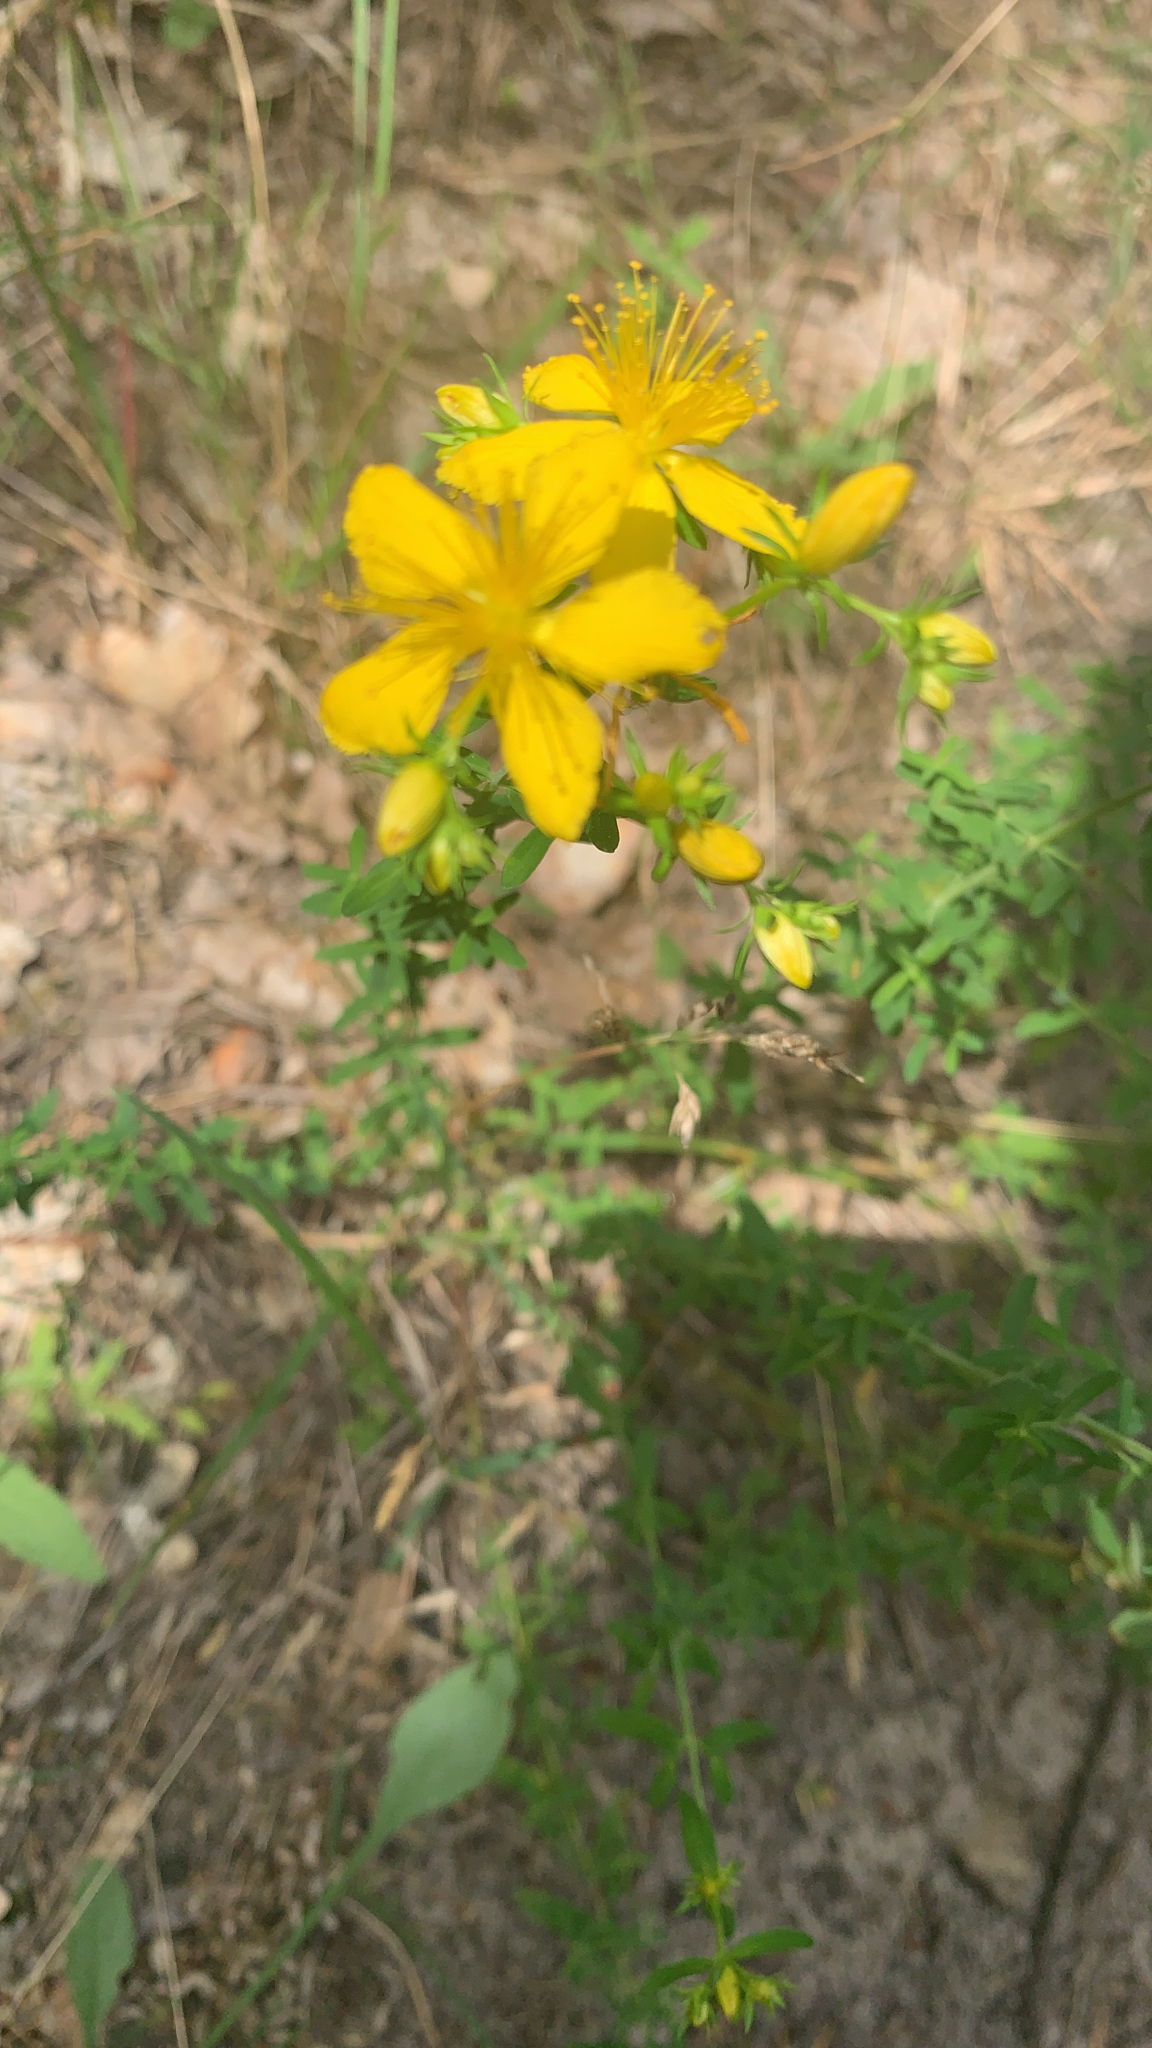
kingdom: Plantae
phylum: Tracheophyta
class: Magnoliopsida
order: Malpighiales
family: Hypericaceae
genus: Hypericum
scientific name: Hypericum perforatum
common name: Common st. johnswort
